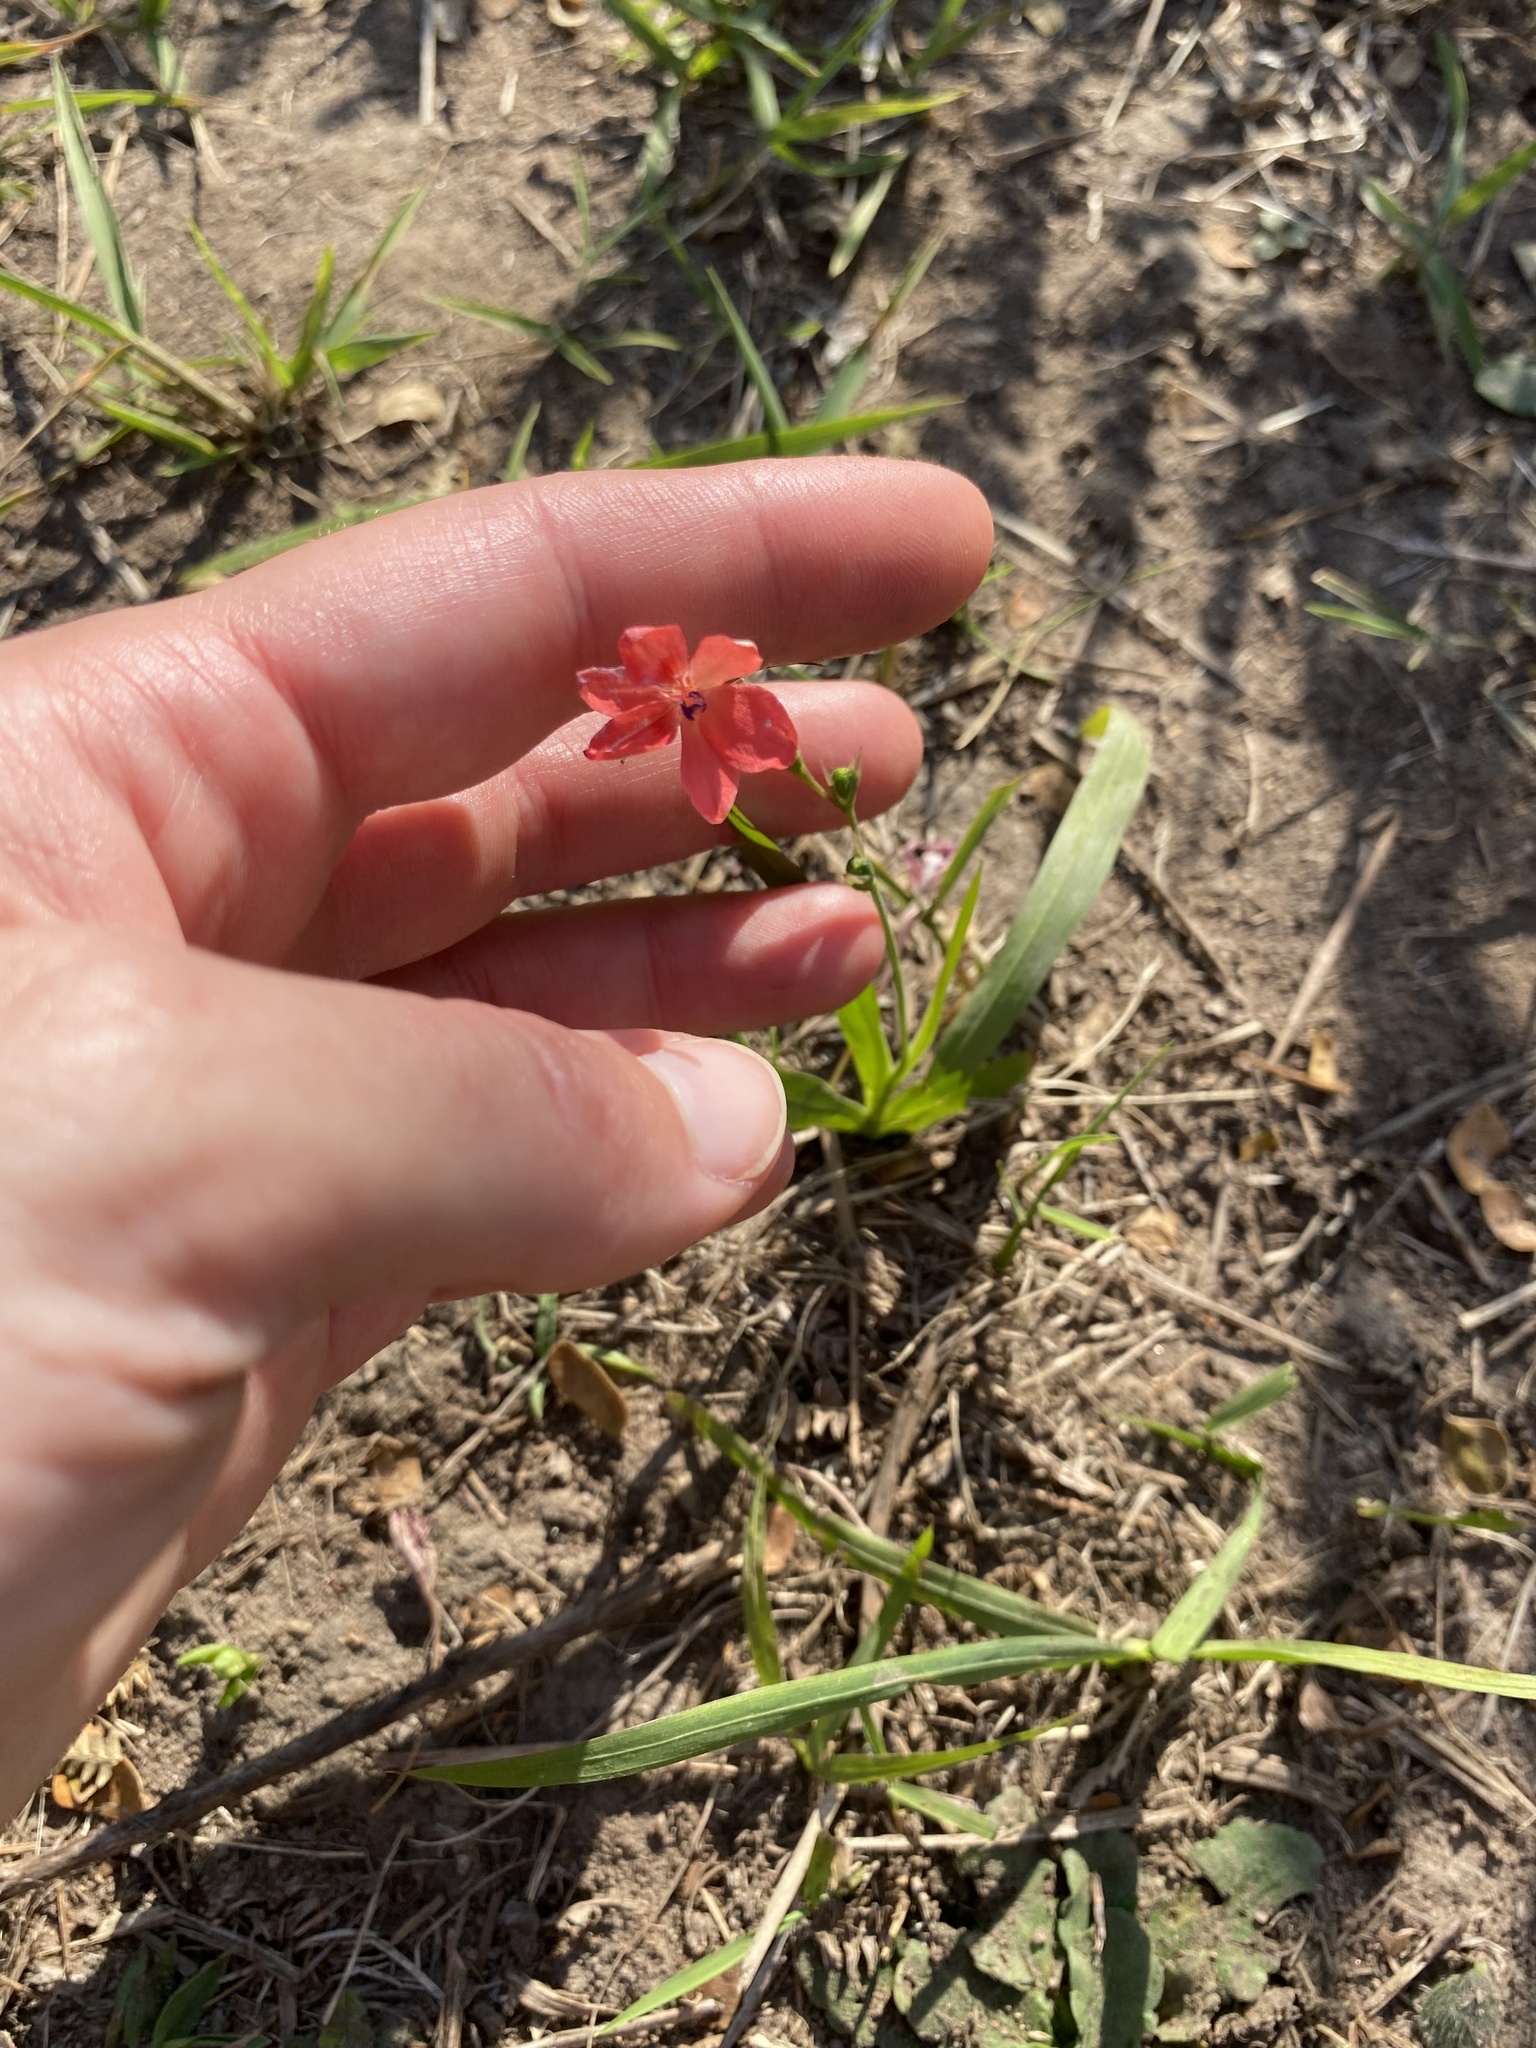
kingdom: Plantae
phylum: Tracheophyta
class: Liliopsida
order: Asparagales
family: Iridaceae
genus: Freesia
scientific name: Freesia laxa
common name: False freesia
